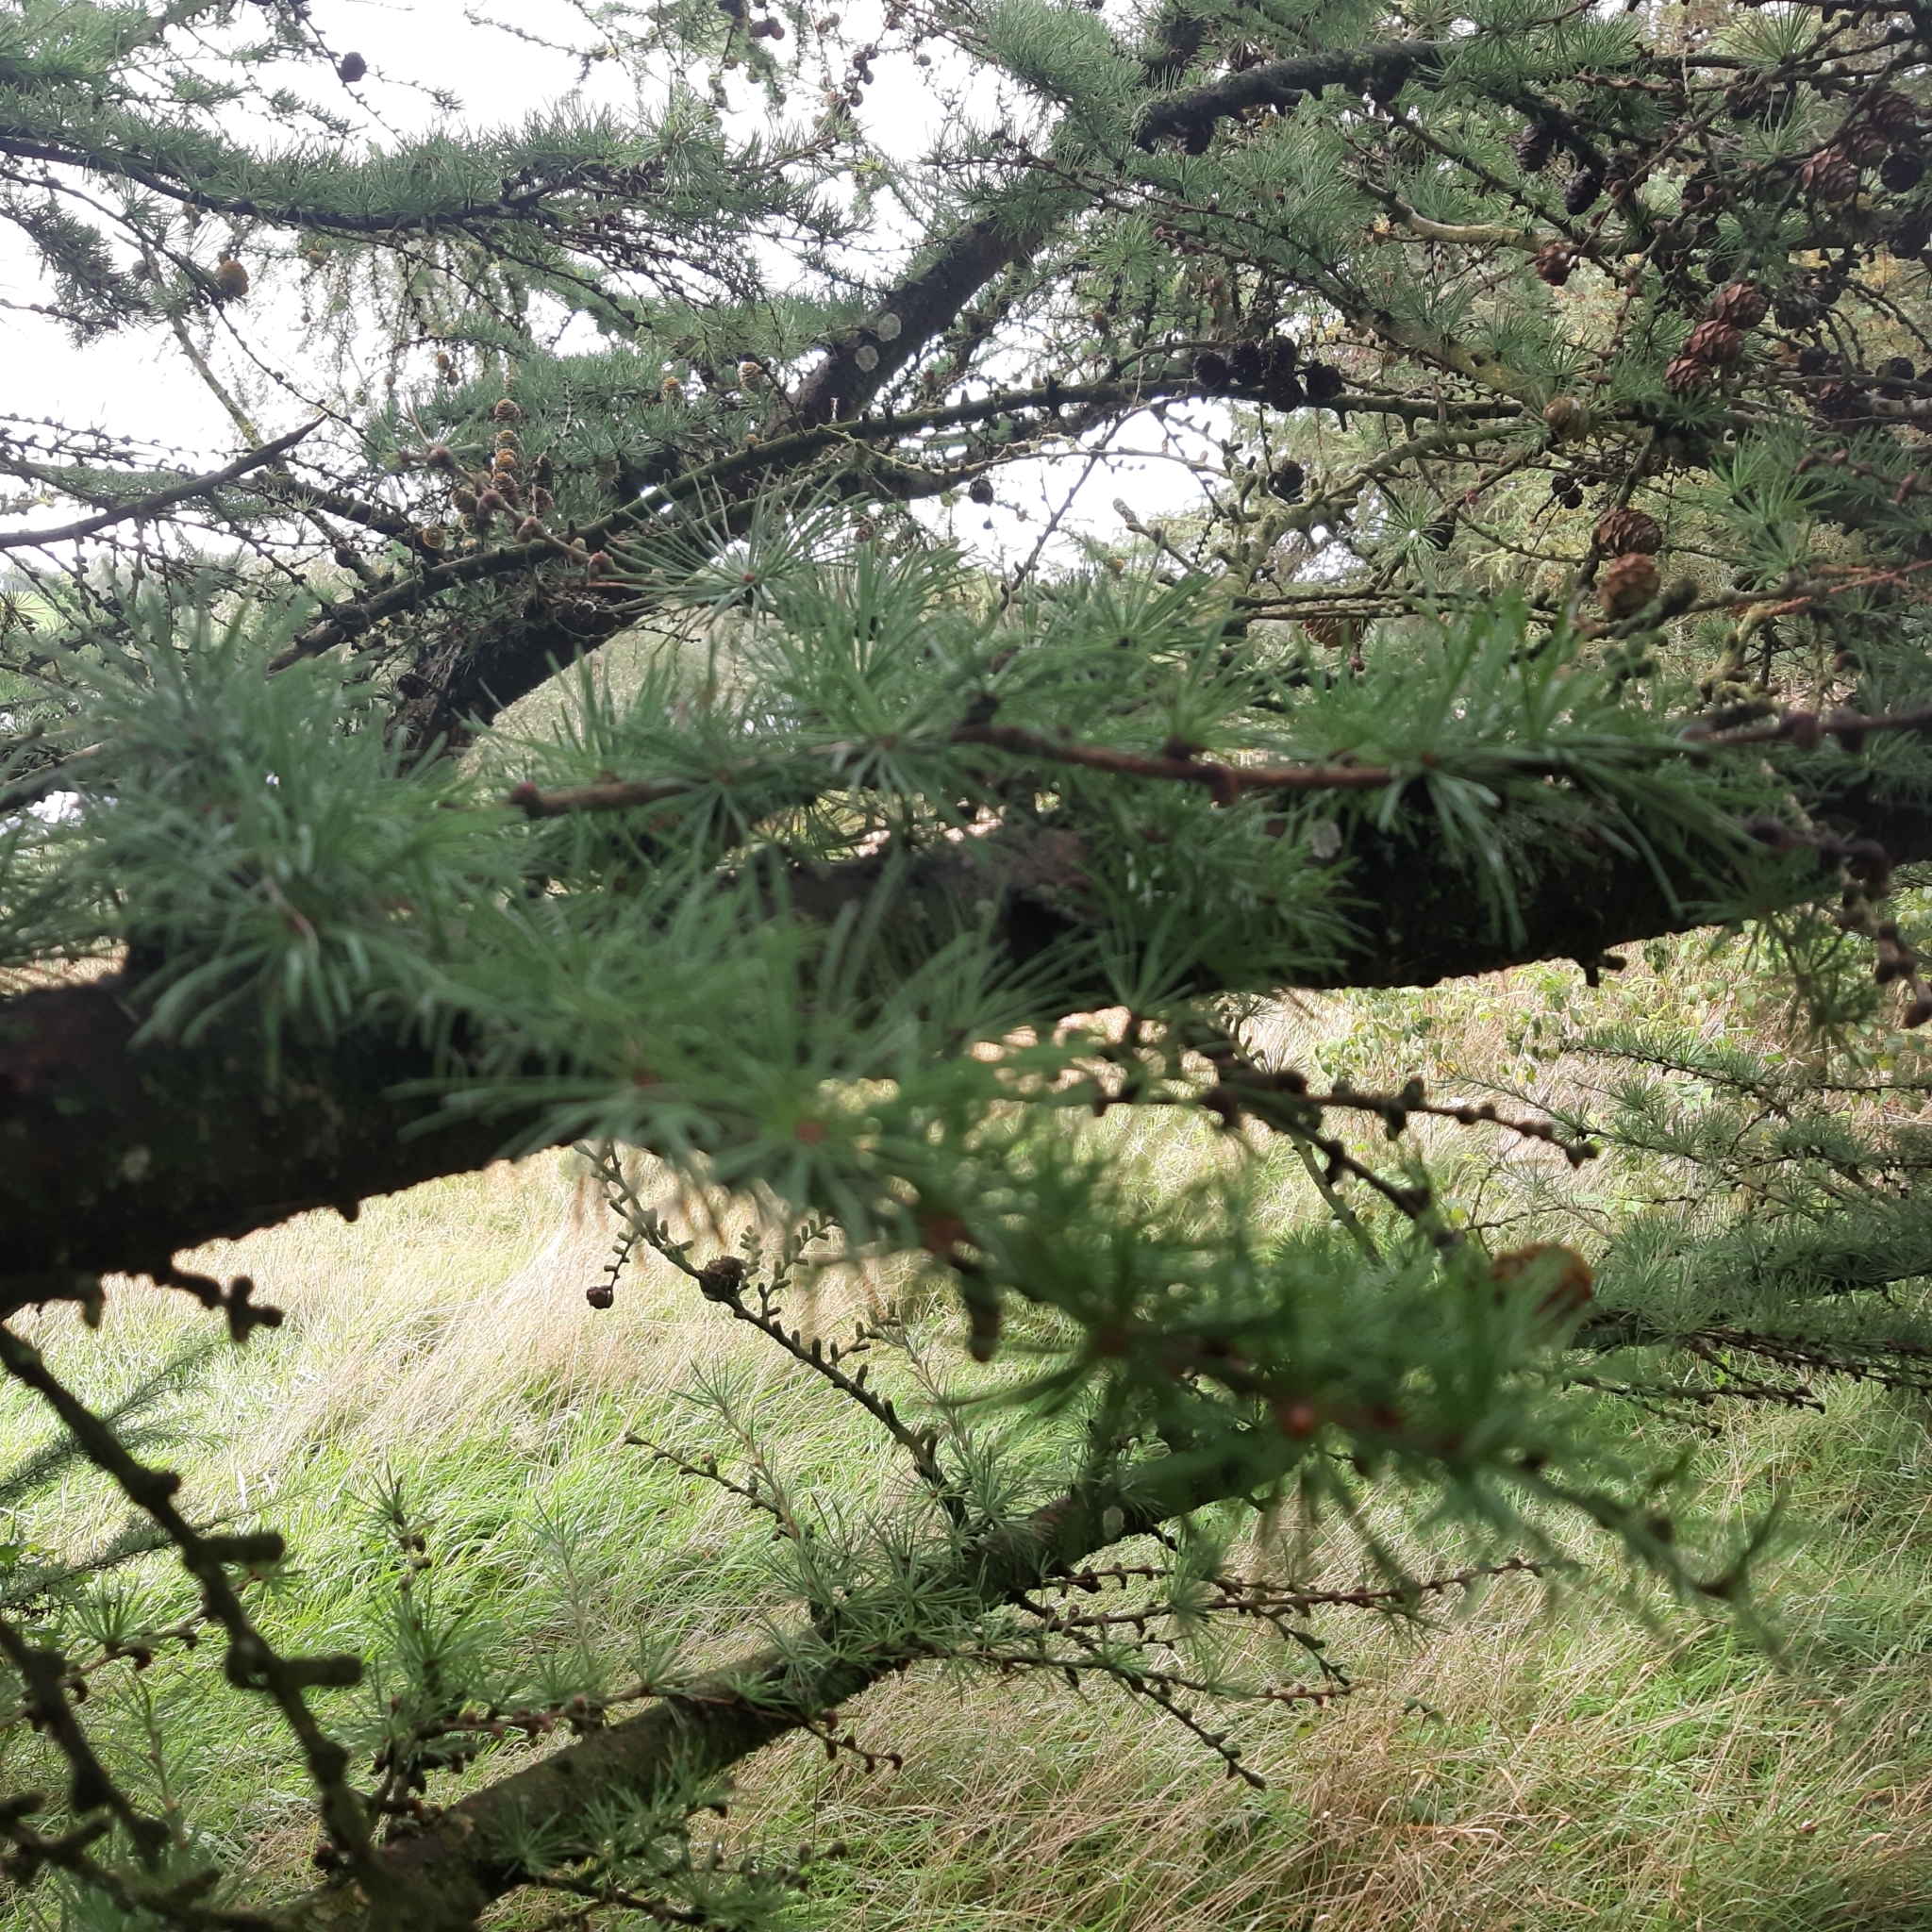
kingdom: Plantae
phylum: Tracheophyta
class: Pinopsida
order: Pinales
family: Pinaceae
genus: Larix
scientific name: Larix decidua
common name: European larch
